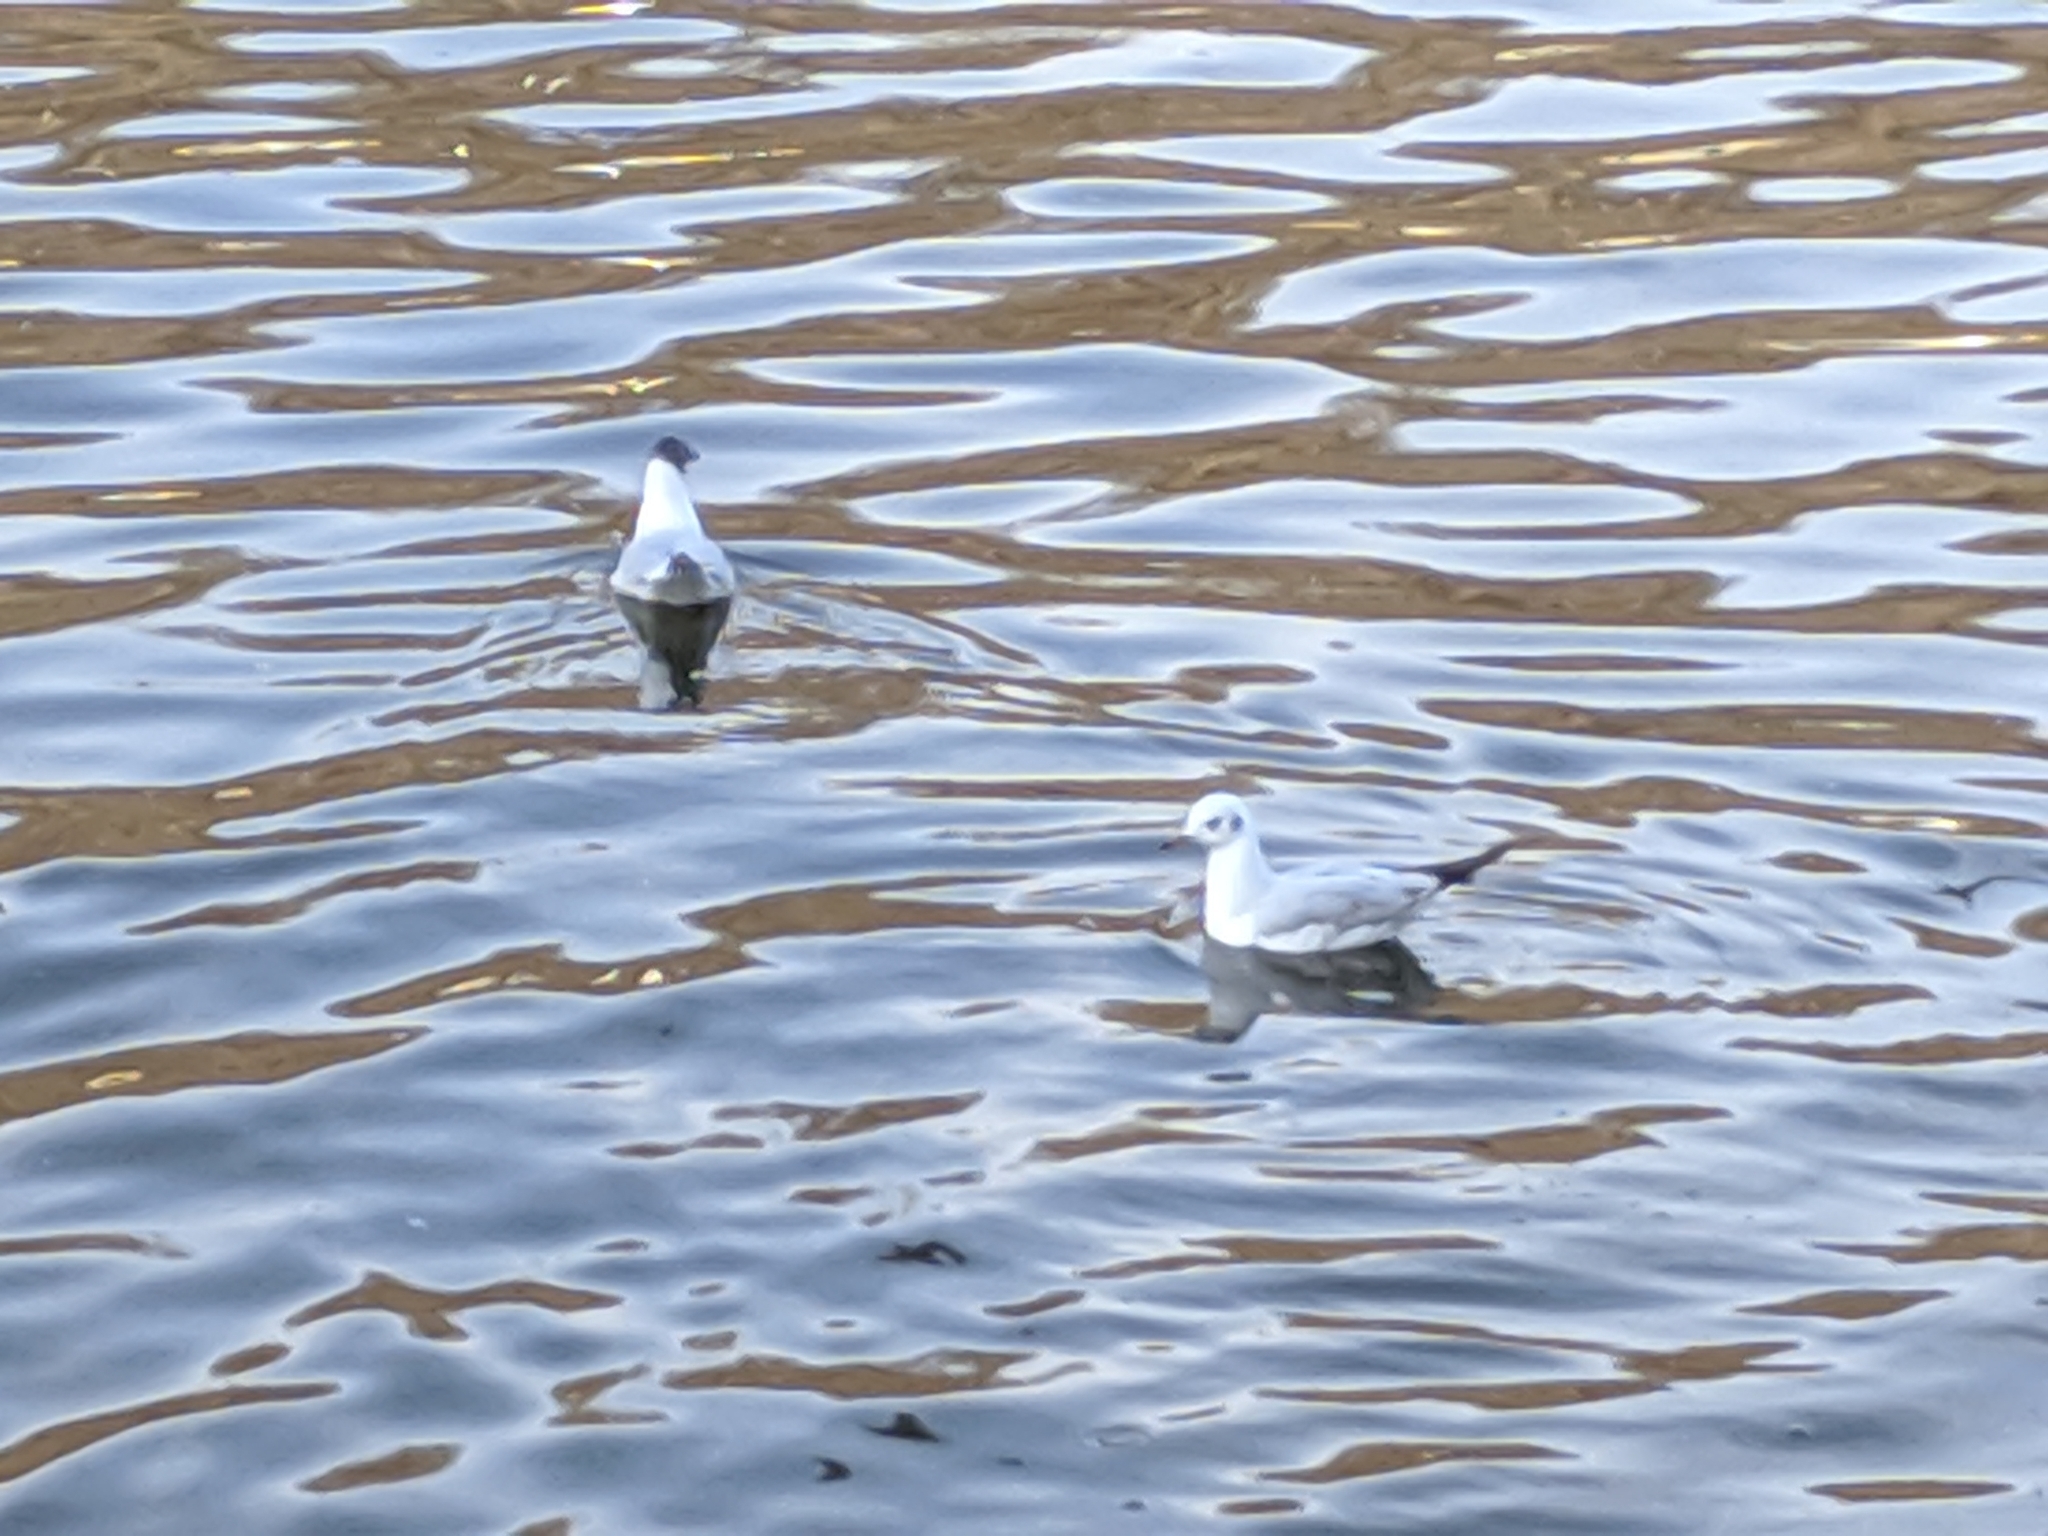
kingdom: Animalia
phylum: Chordata
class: Aves
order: Charadriiformes
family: Laridae
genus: Chroicocephalus
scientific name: Chroicocephalus ridibundus
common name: Black-headed gull
